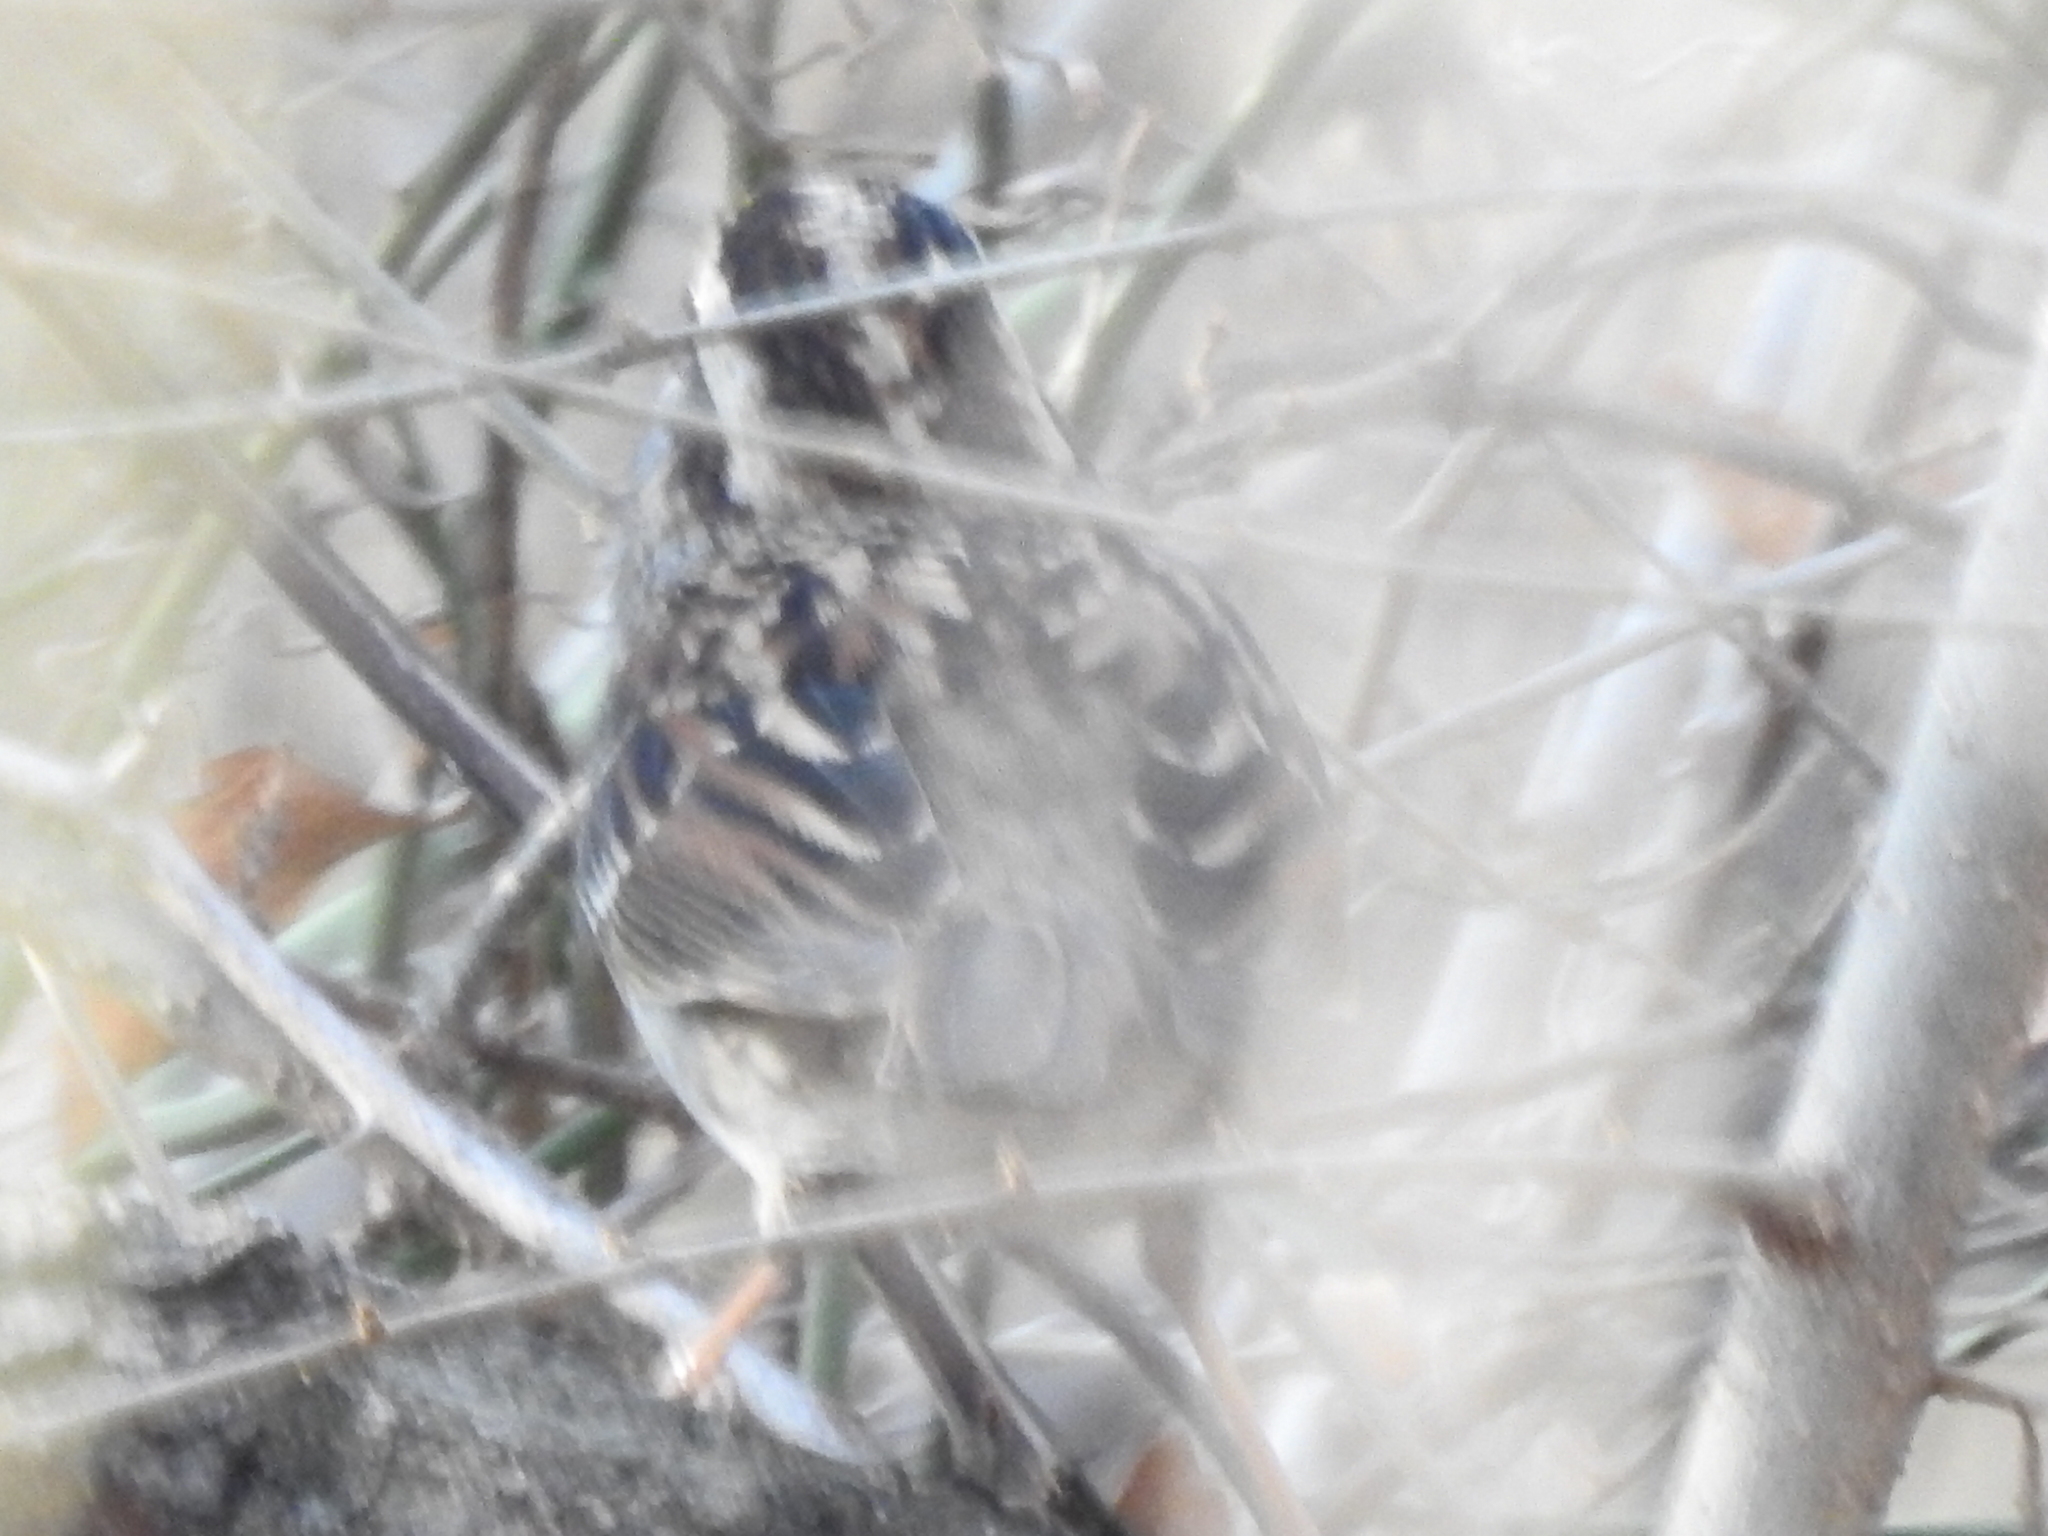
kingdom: Animalia
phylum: Chordata
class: Aves
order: Passeriformes
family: Passerellidae
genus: Zonotrichia
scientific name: Zonotrichia albicollis
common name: White-throated sparrow
